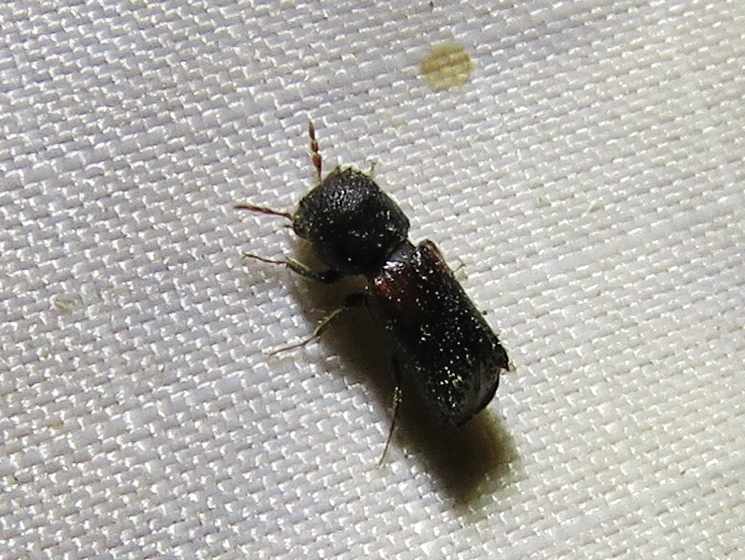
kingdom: Animalia
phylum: Arthropoda
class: Insecta
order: Coleoptera
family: Bostrichidae
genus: Xylobiops
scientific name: Xylobiops basilaris
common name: Red-shouldered bostrichid
